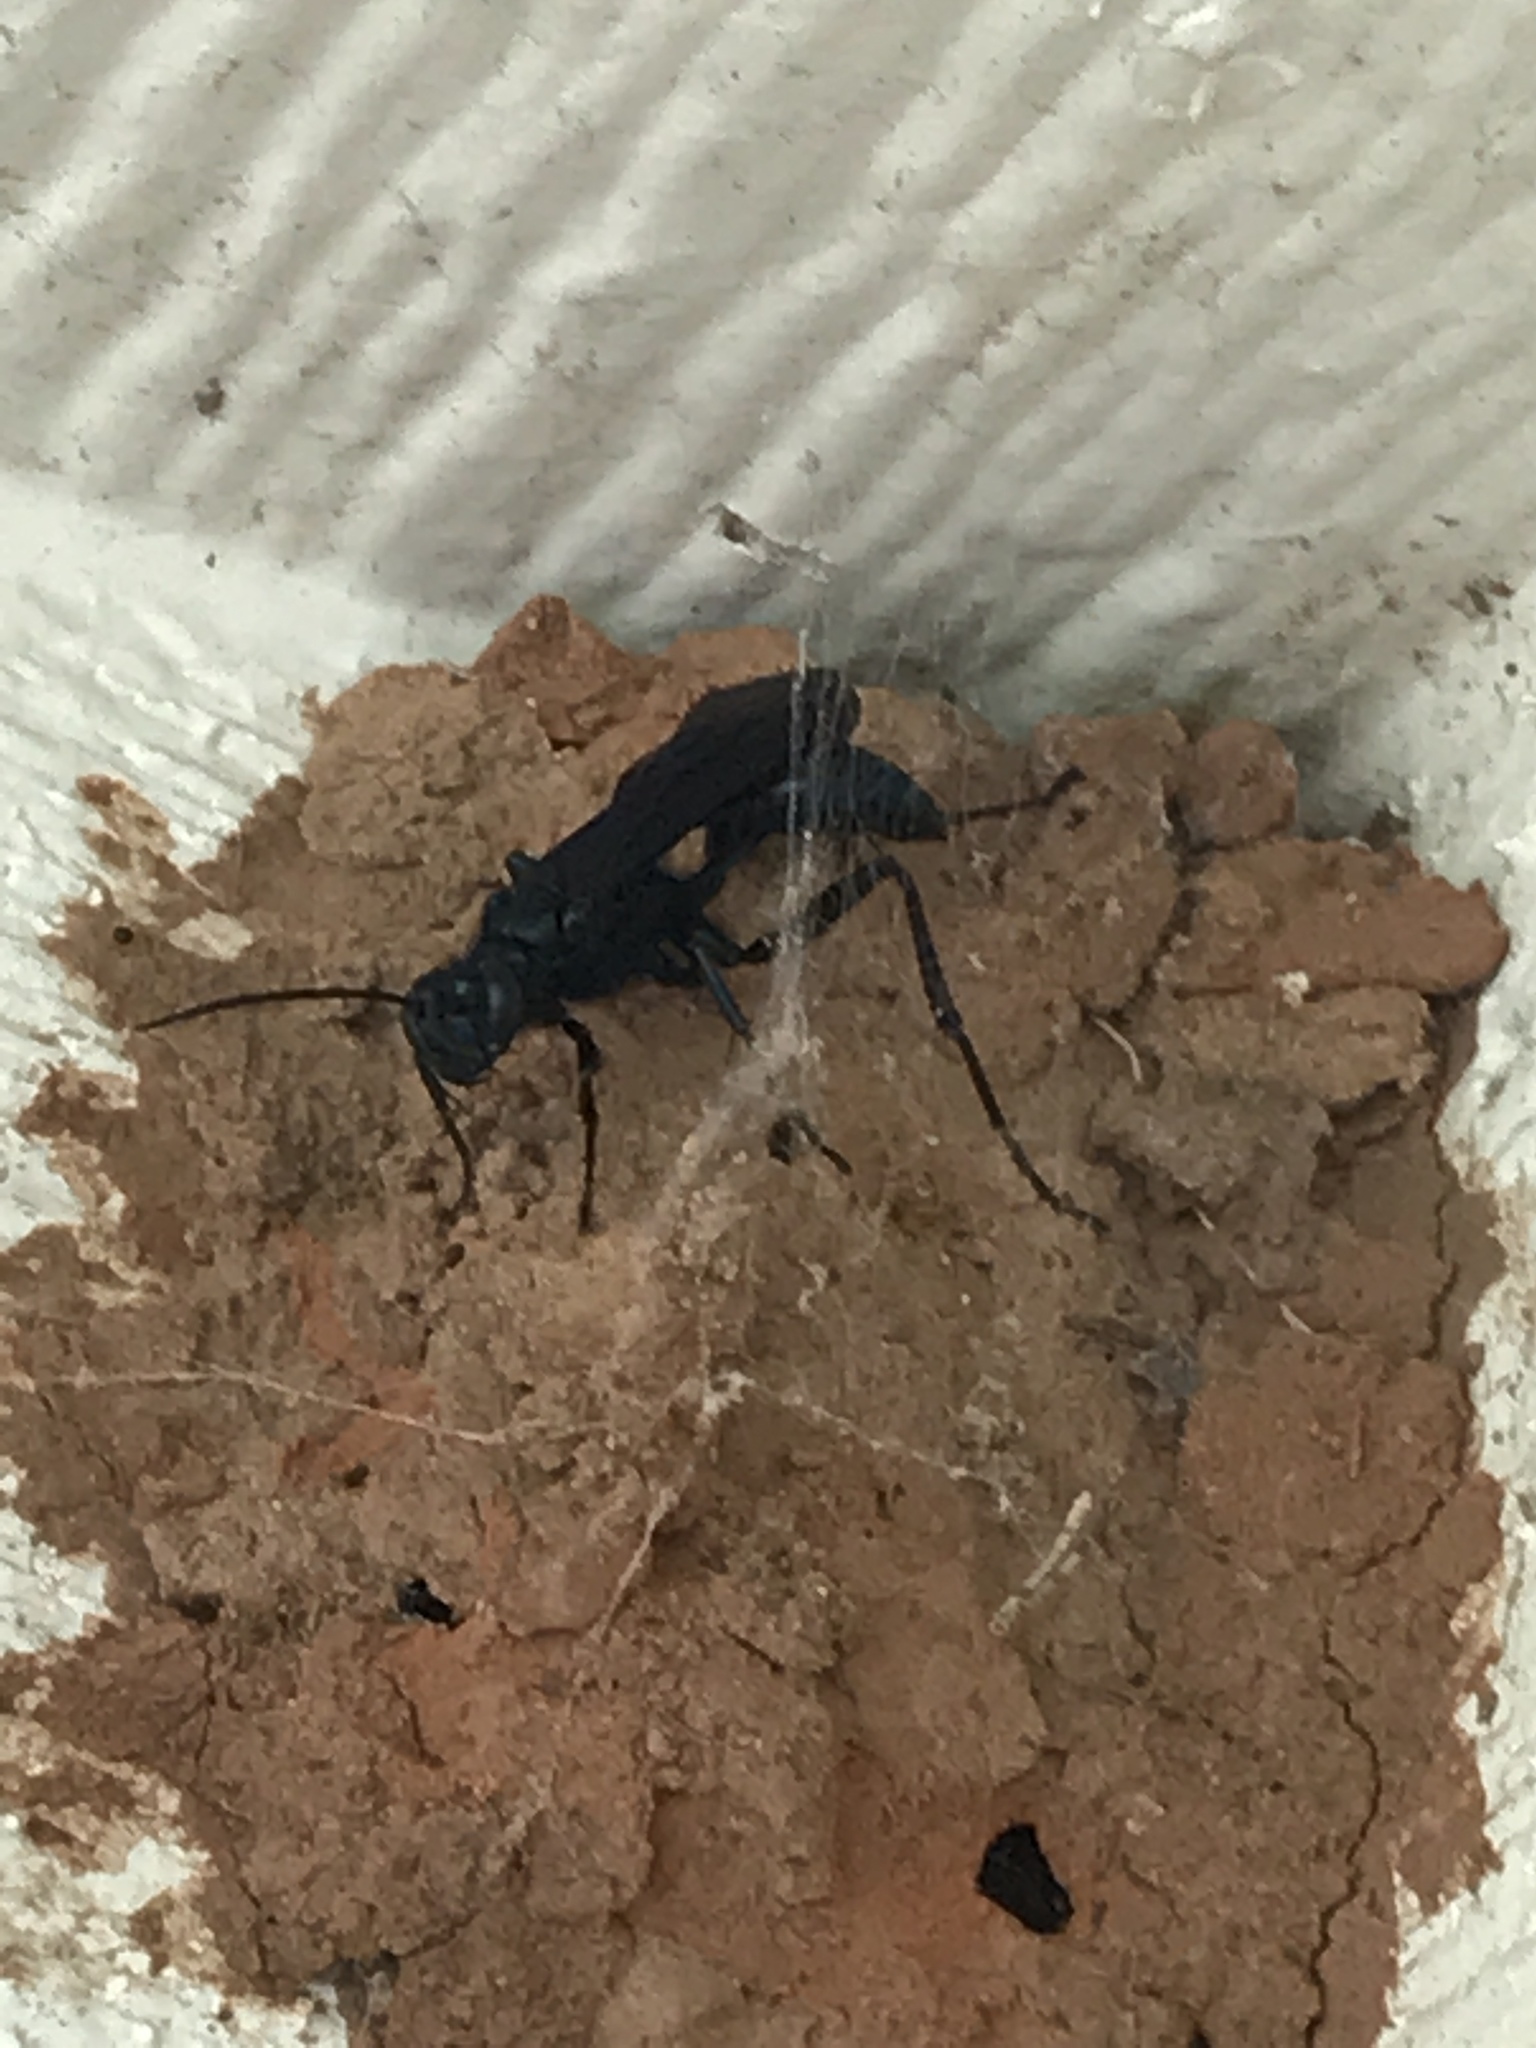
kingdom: Animalia
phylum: Arthropoda
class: Insecta
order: Hymenoptera
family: Sphecidae
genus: Chalybion
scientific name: Chalybion californicum
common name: Mud dauber
